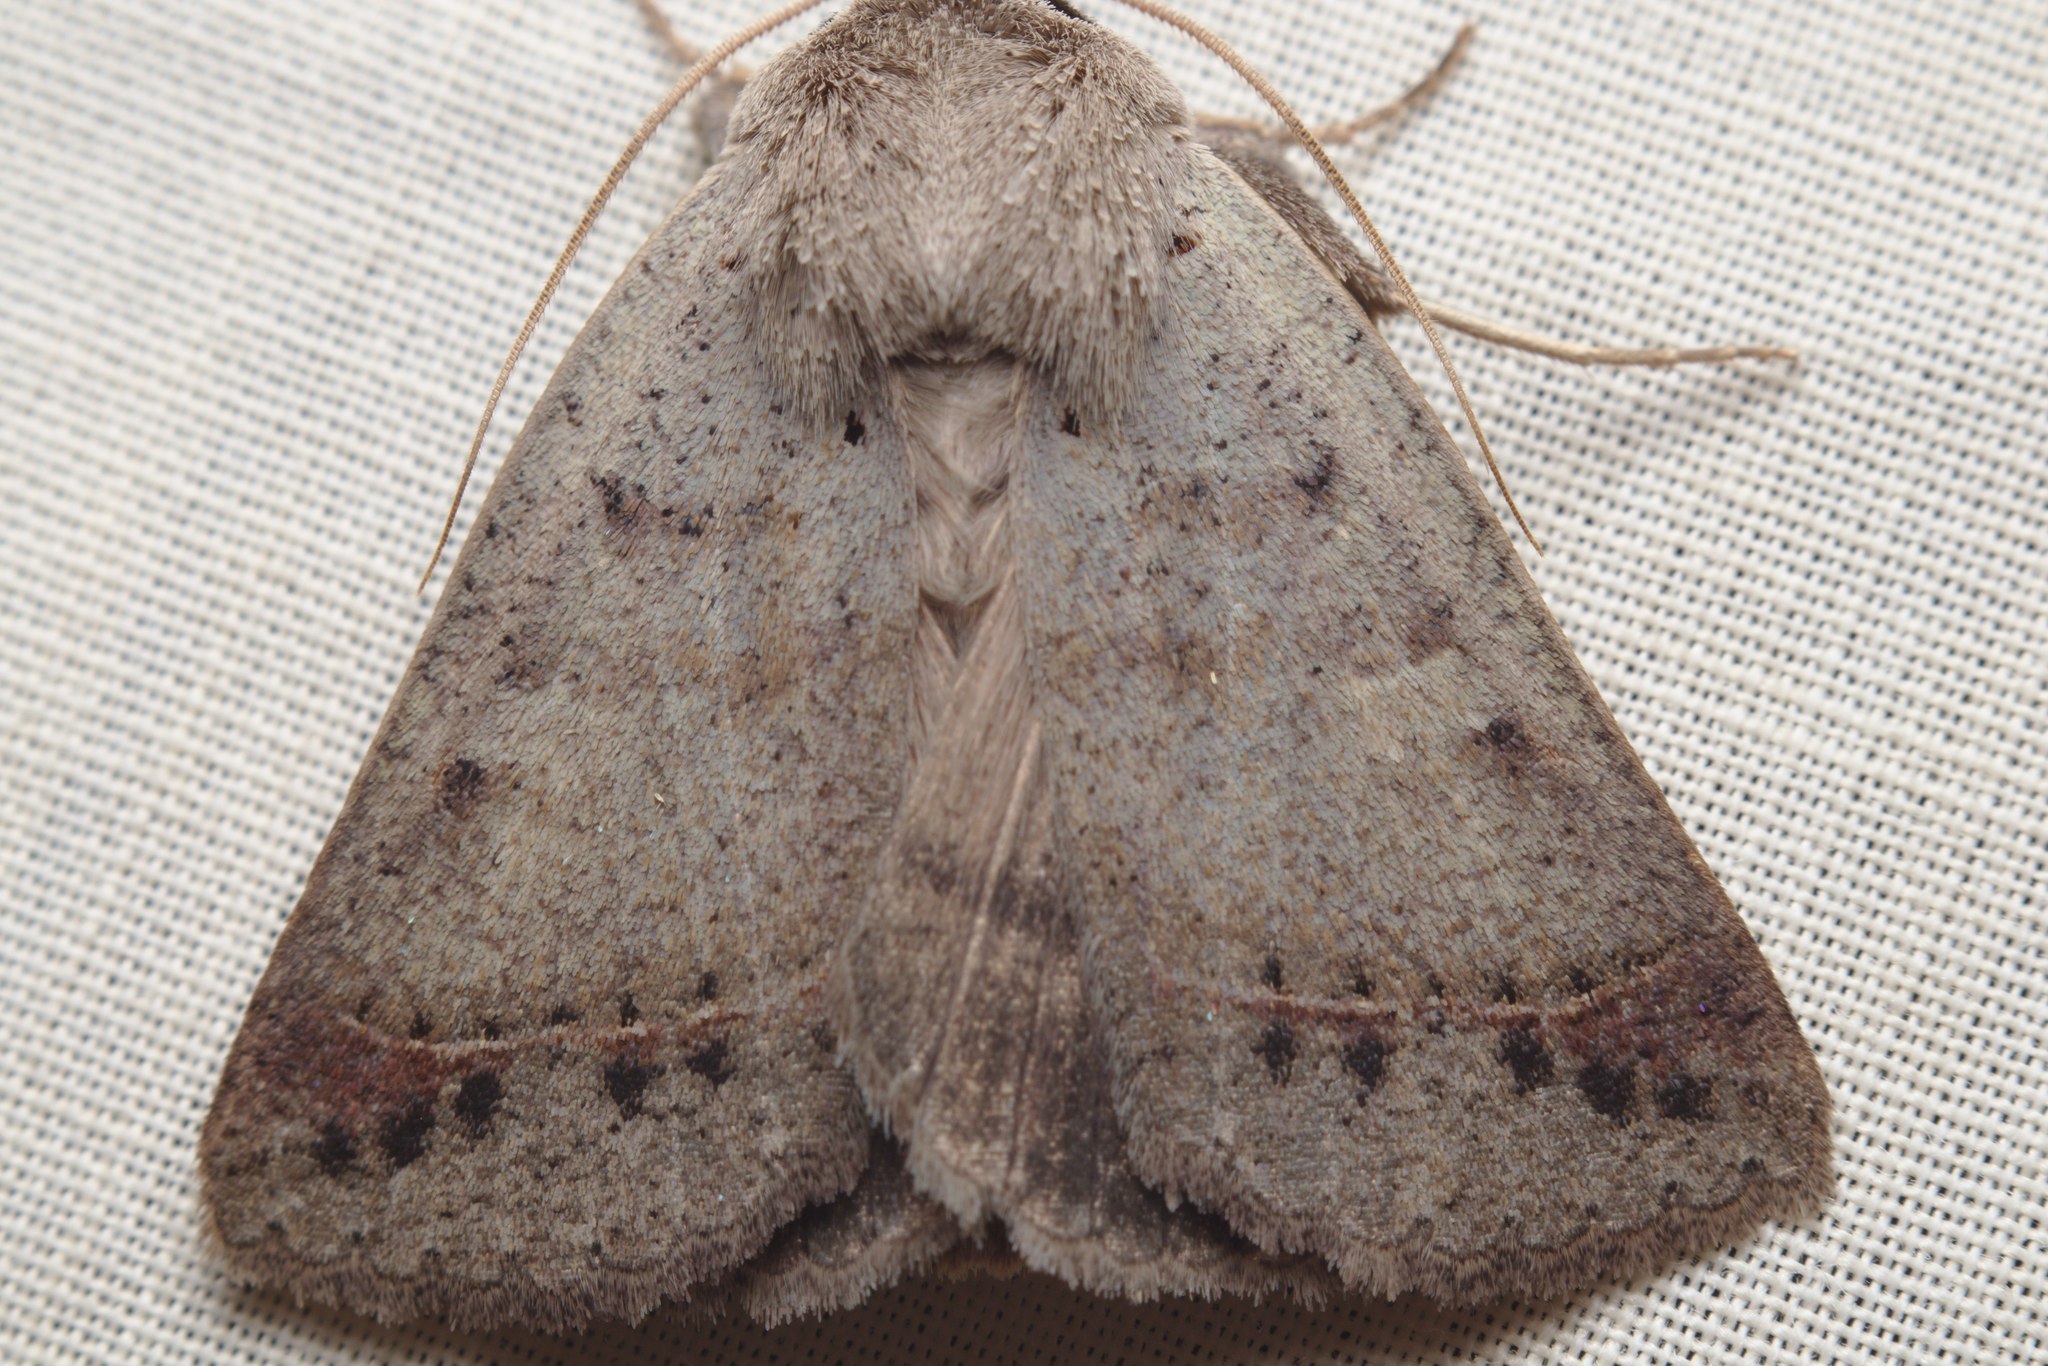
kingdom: Animalia
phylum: Arthropoda
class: Insecta
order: Lepidoptera
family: Erebidae
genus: Pantydia
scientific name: Pantydia sparsa
